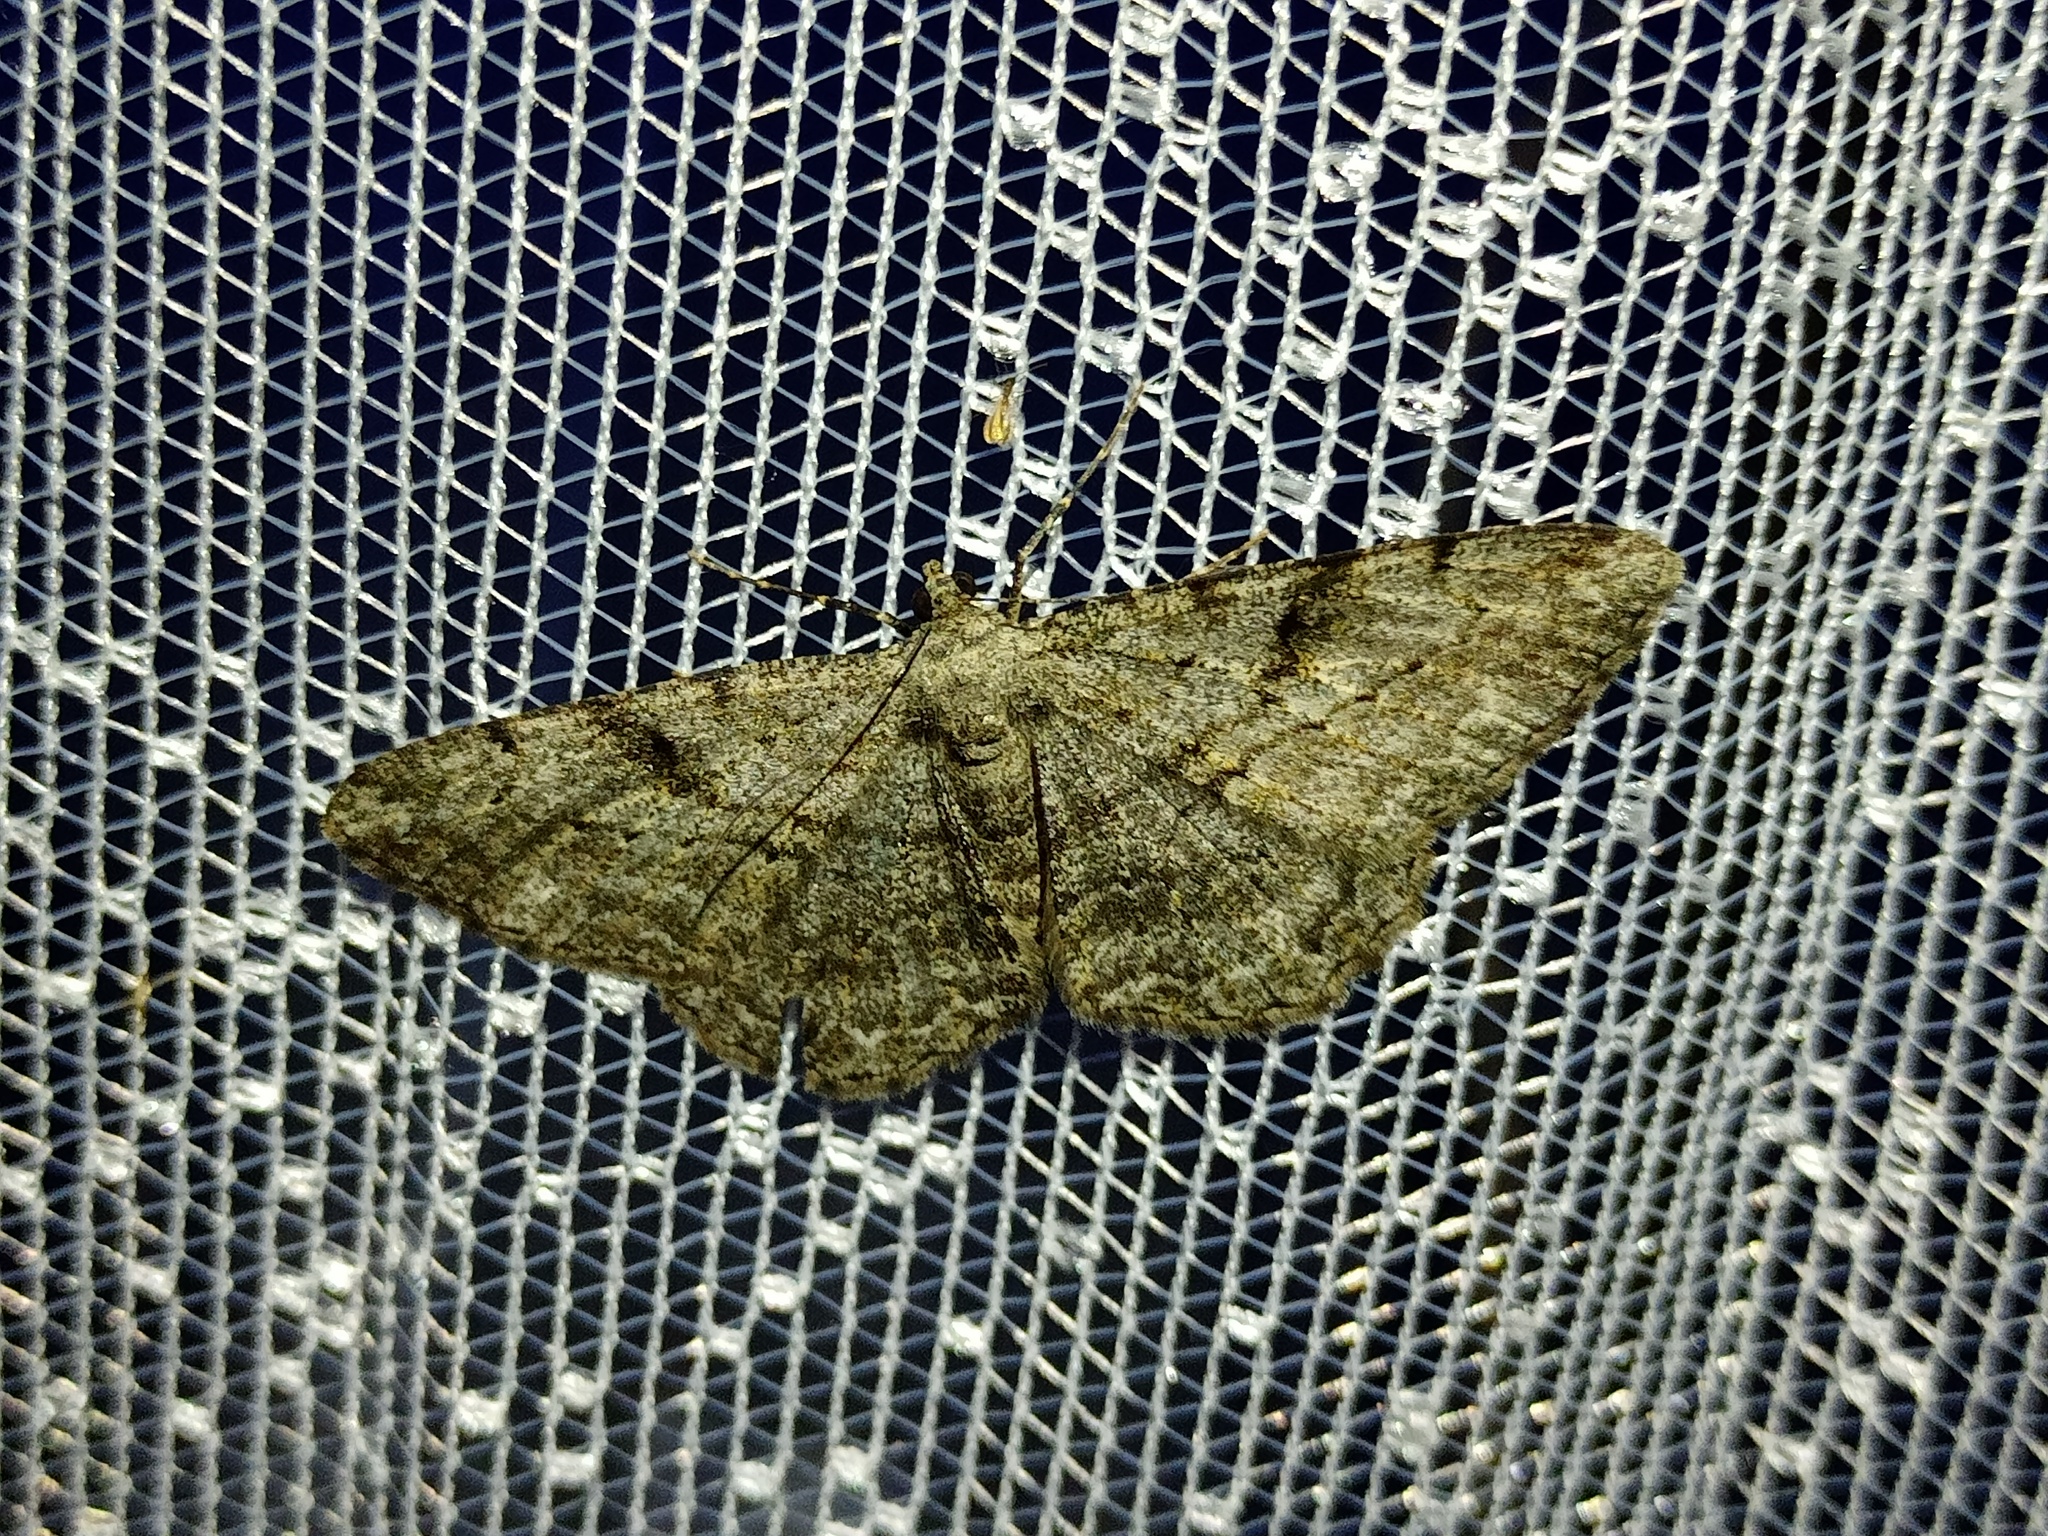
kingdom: Animalia
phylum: Arthropoda
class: Insecta
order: Lepidoptera
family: Geometridae
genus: Peribatodes
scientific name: Peribatodes rhomboidaria
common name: Willow beauty
